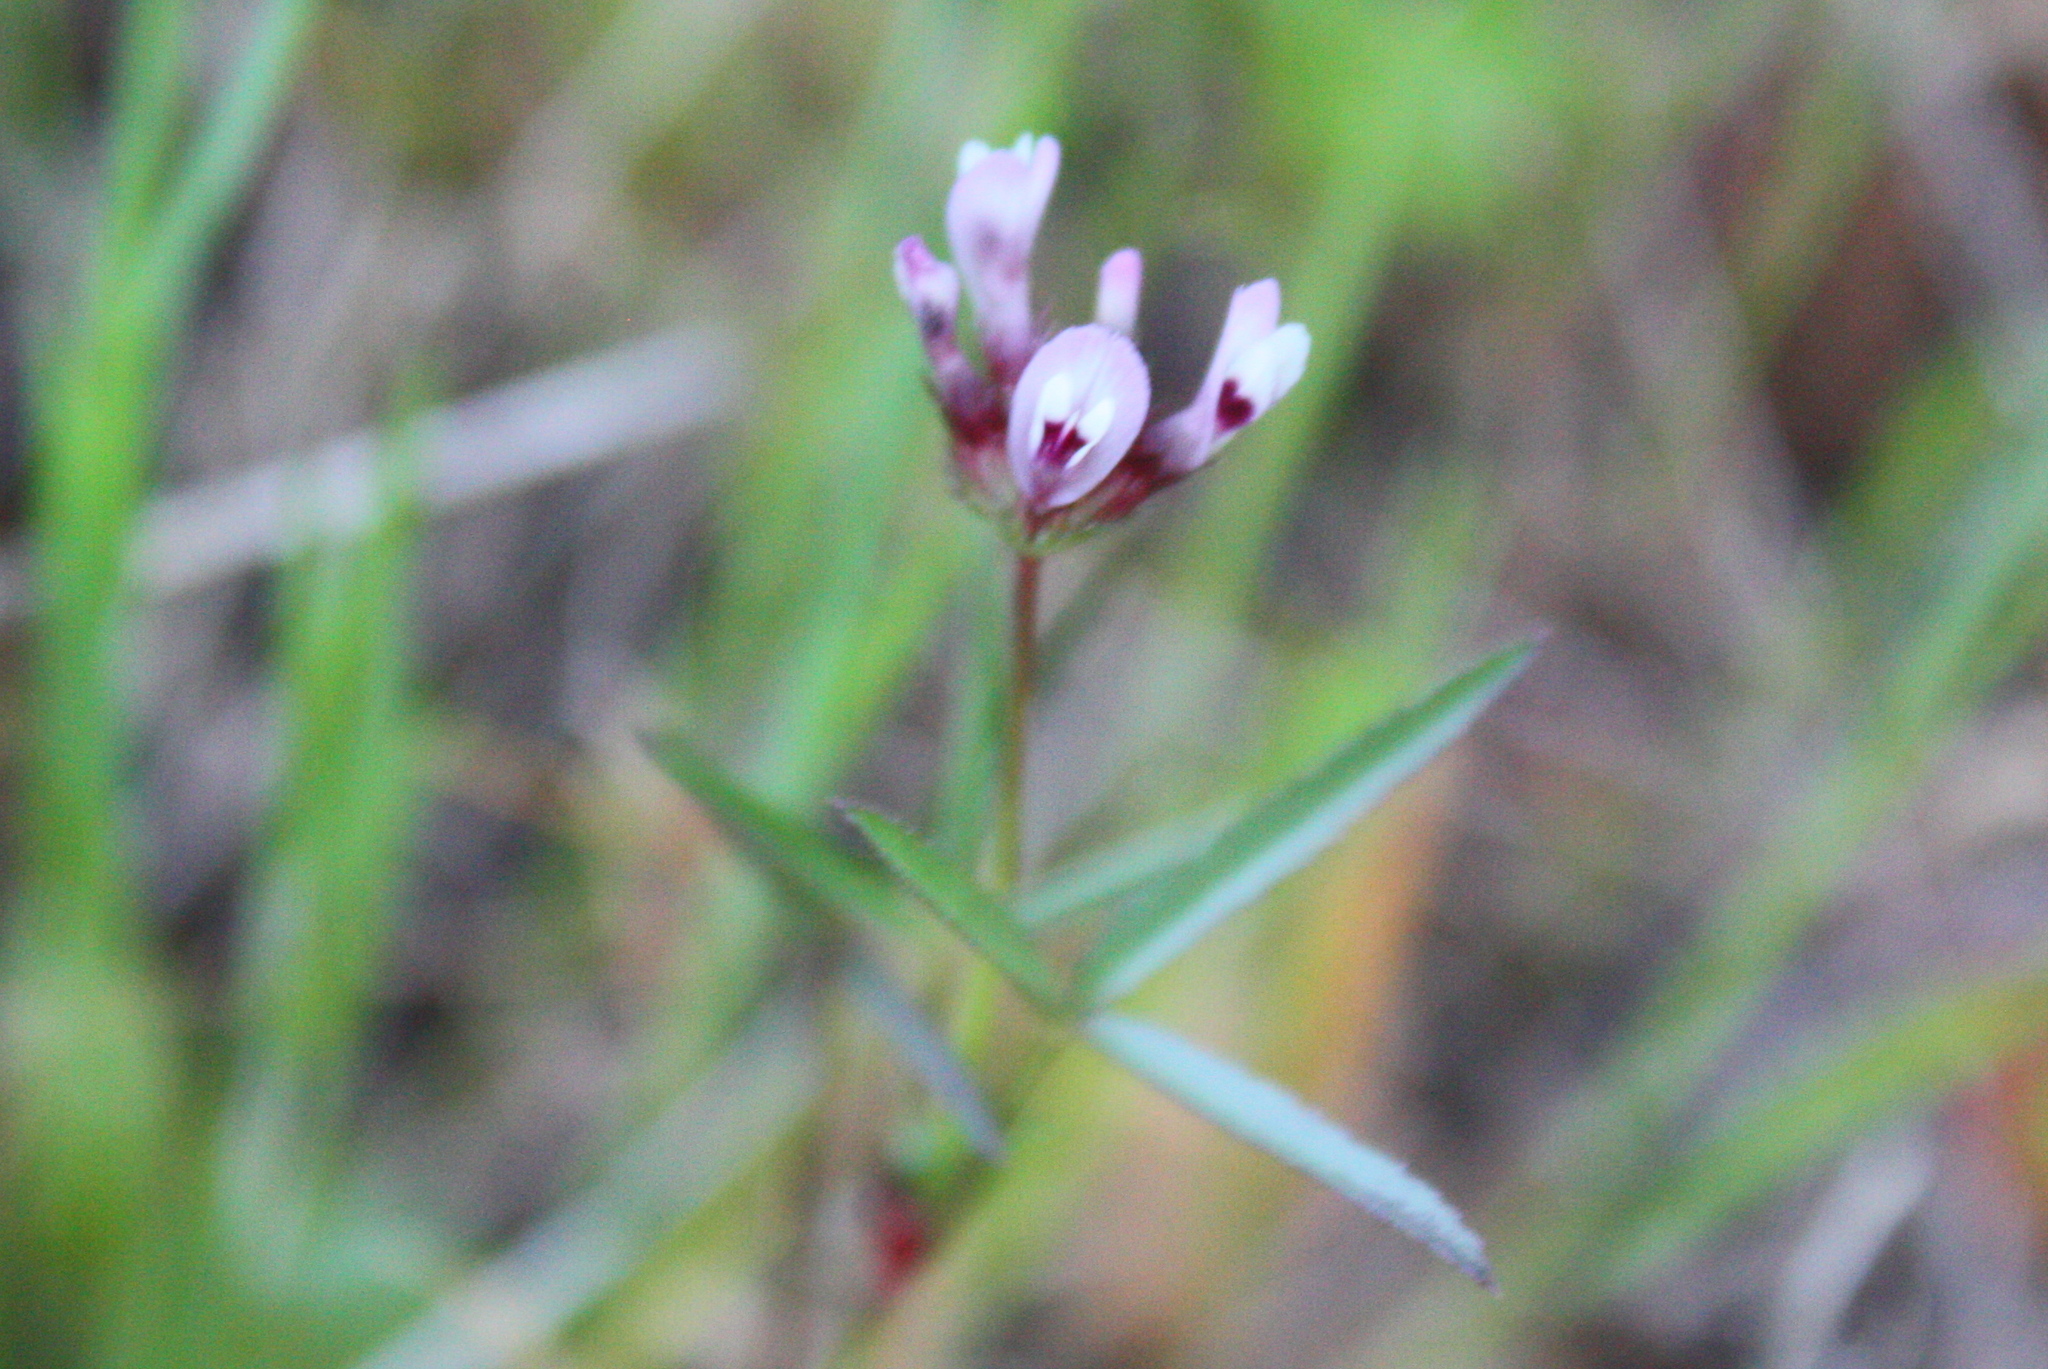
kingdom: Plantae
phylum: Tracheophyta
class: Magnoliopsida
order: Fabales
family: Fabaceae
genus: Trifolium
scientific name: Trifolium willdenovii
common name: Tomcat clover
